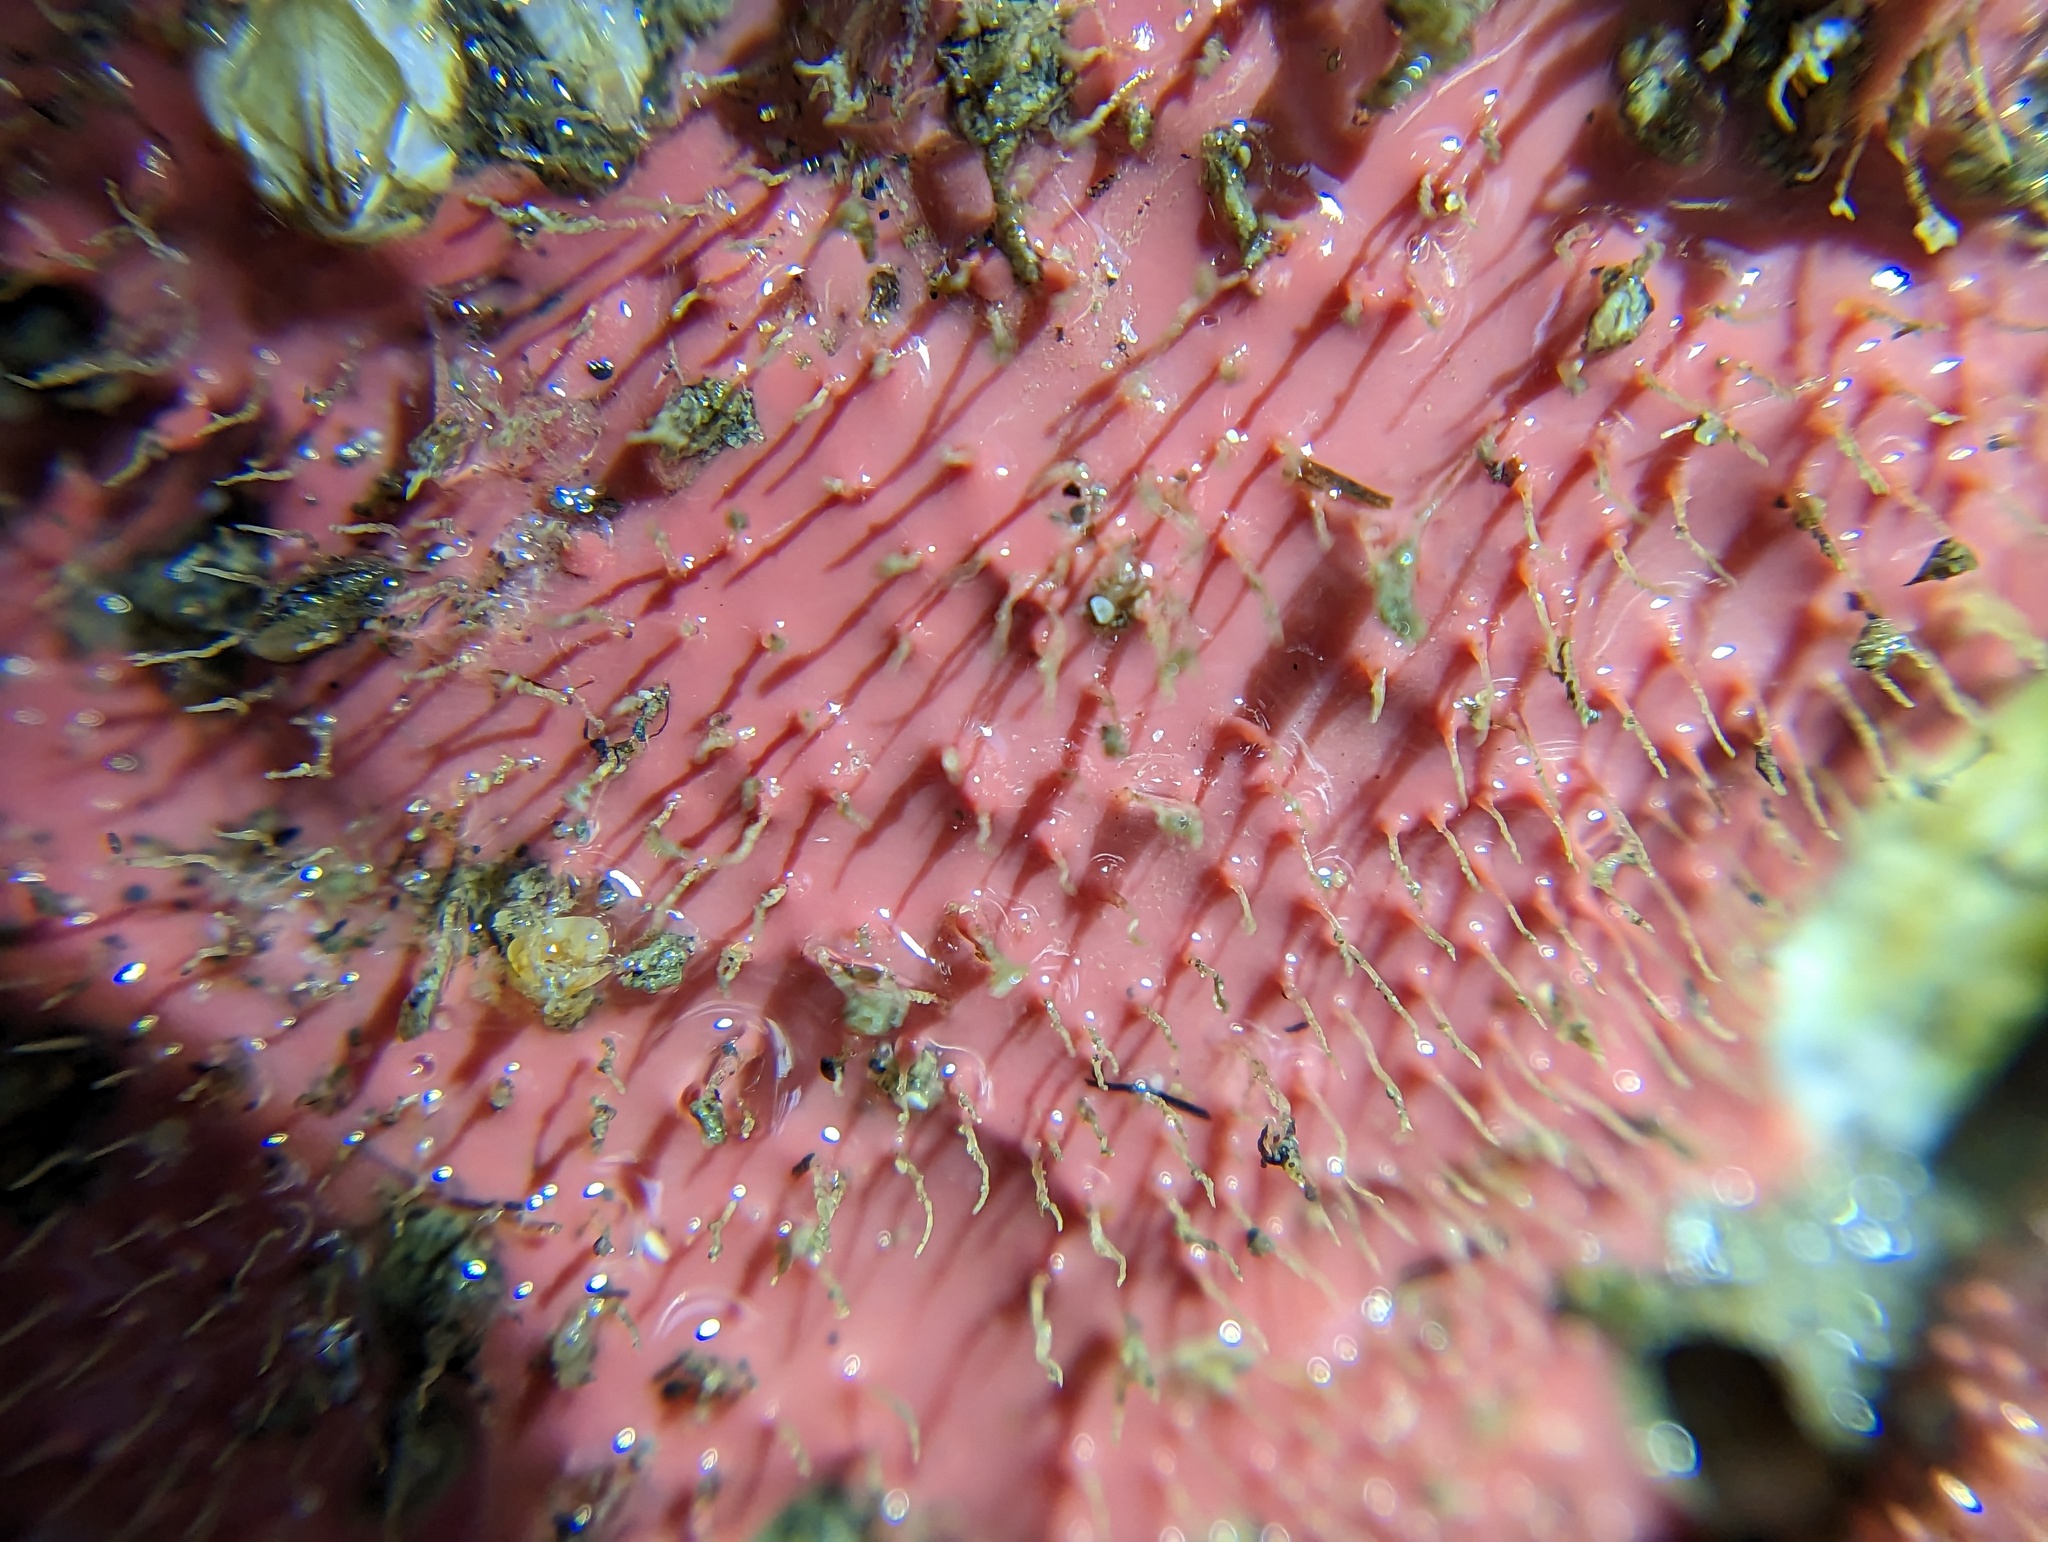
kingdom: Animalia
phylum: Porifera
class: Demospongiae
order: Dendroceratida
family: Darwinellidae
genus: Aplysilla
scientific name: Aplysilla glacialis
